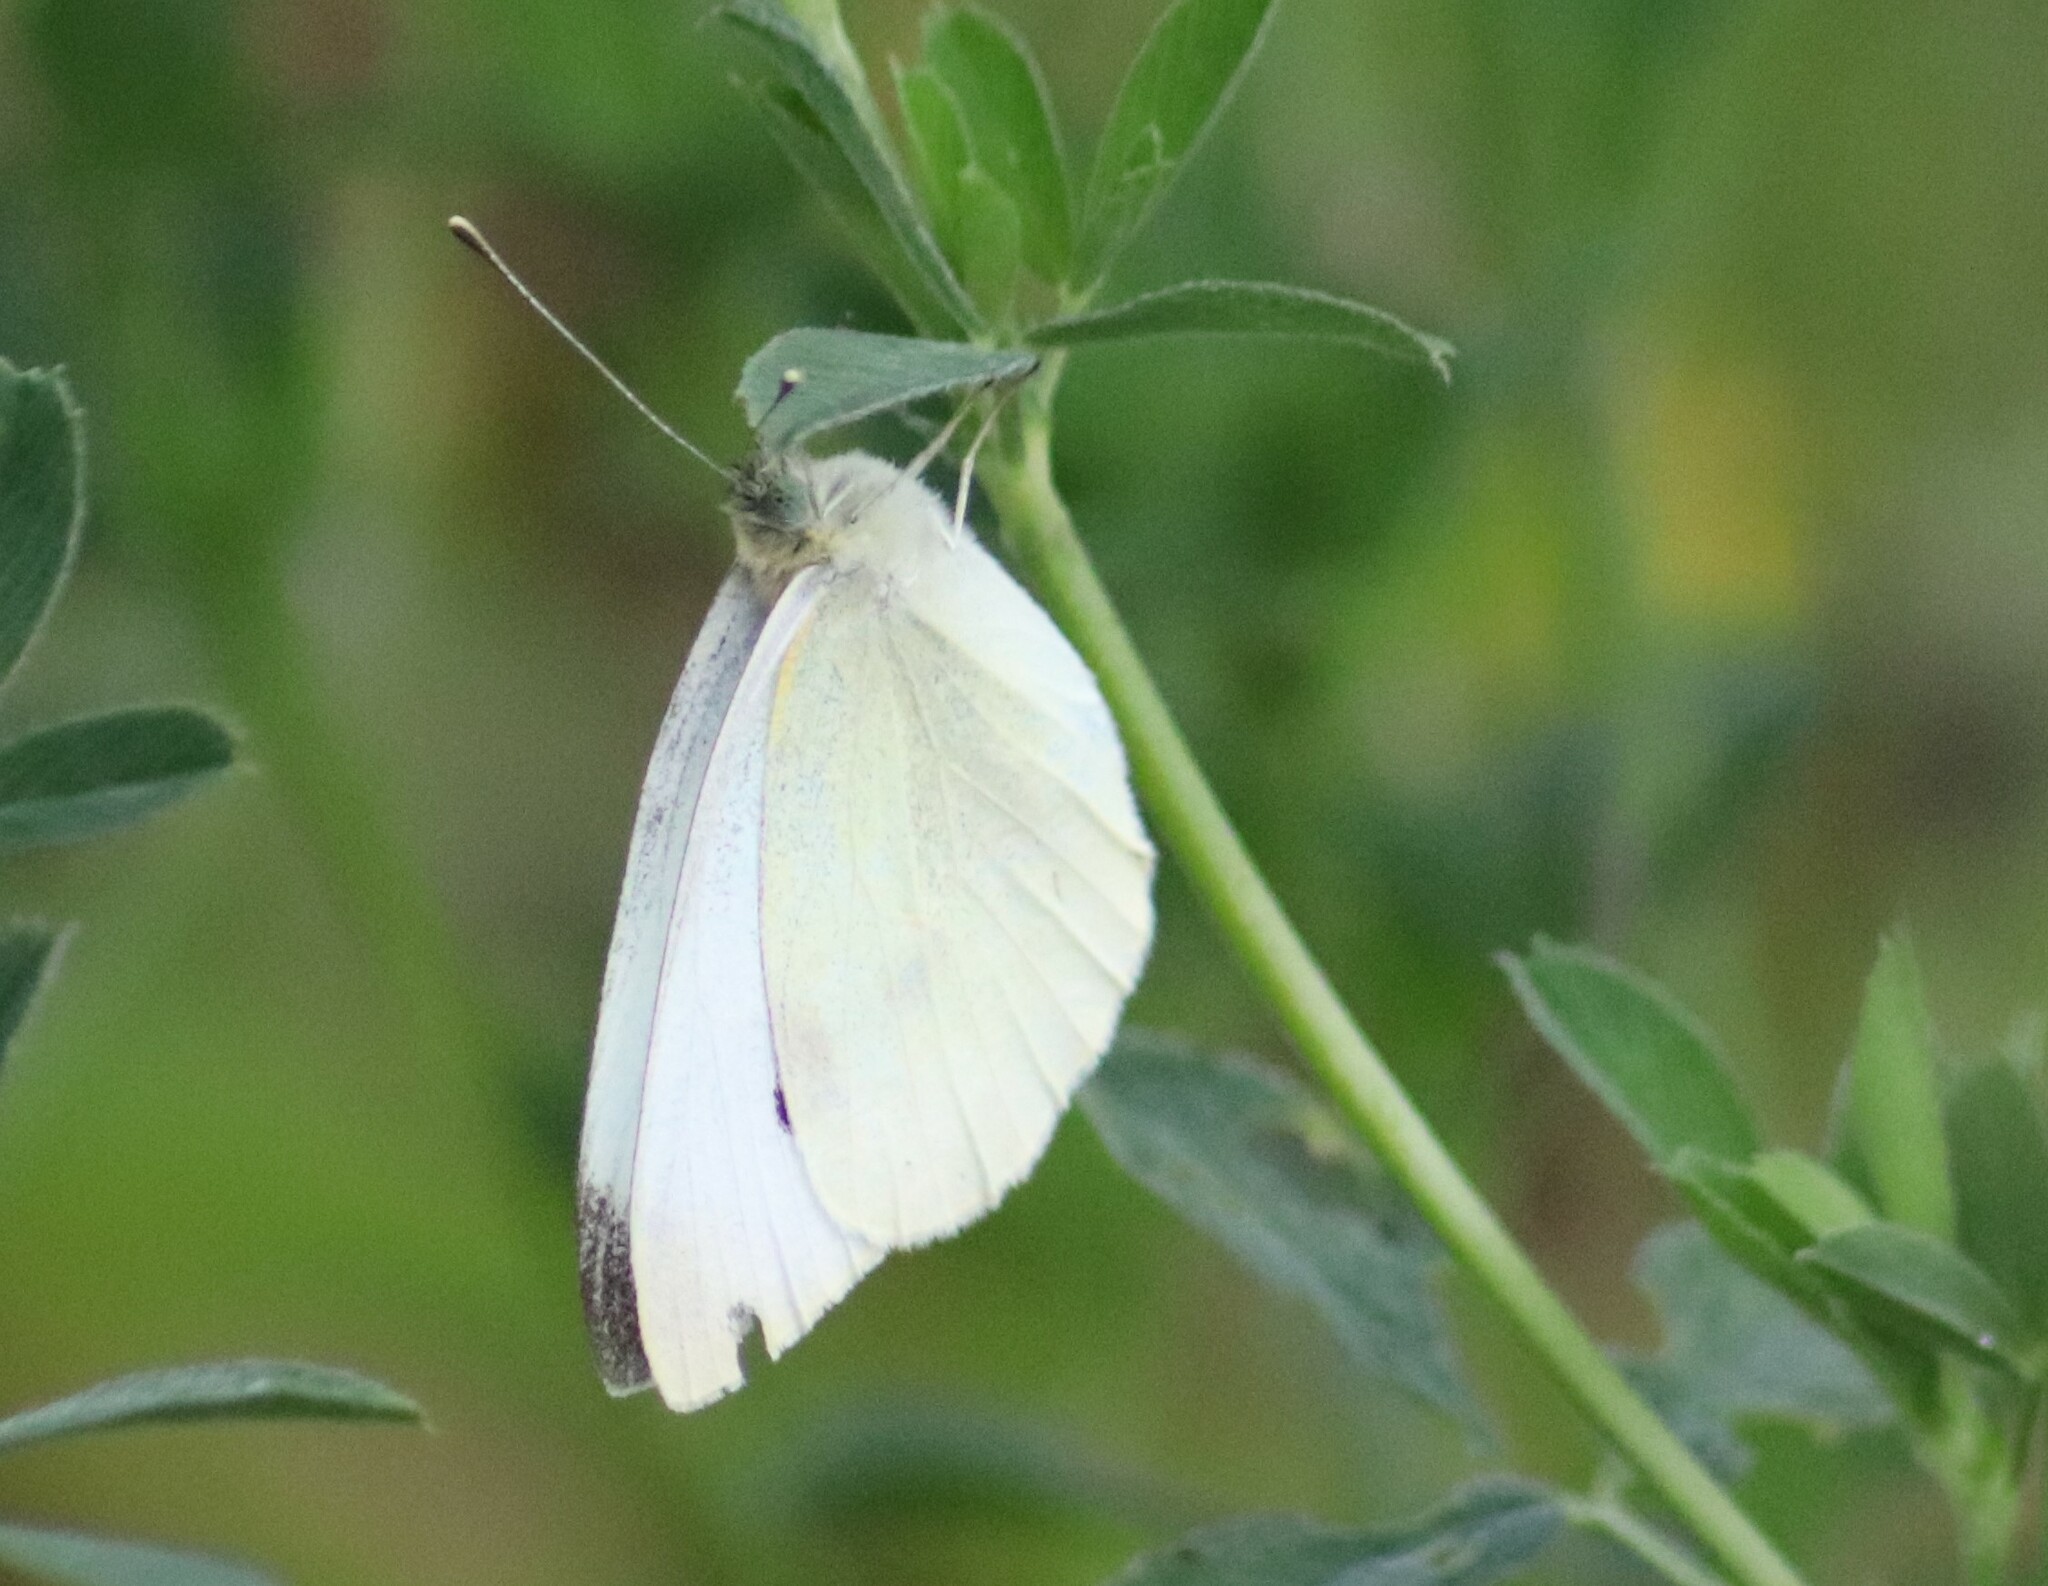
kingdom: Animalia
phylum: Arthropoda
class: Insecta
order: Lepidoptera
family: Pieridae
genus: Pieris
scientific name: Pieris rapae
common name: Small white
